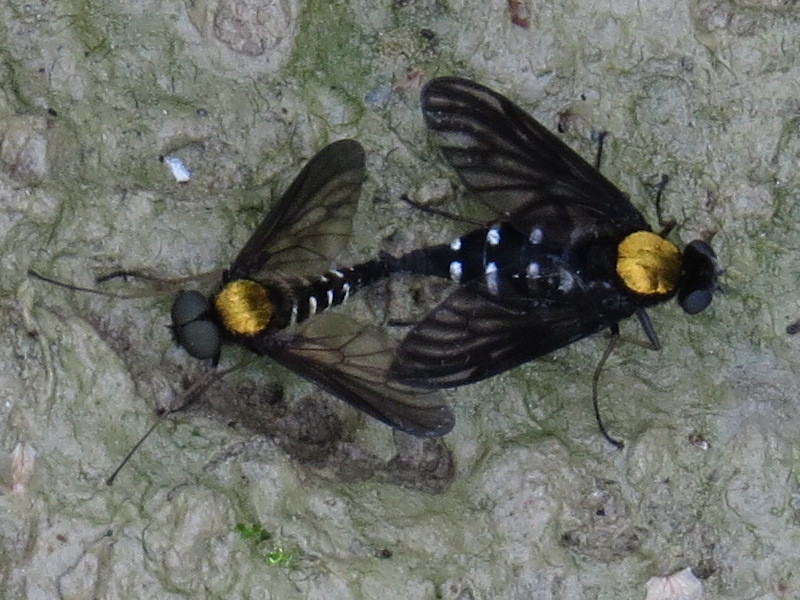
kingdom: Animalia
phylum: Arthropoda
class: Insecta
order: Diptera
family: Rhagionidae
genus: Chrysopilus
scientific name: Chrysopilus thoracicus
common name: Golden-backed snipe fly
